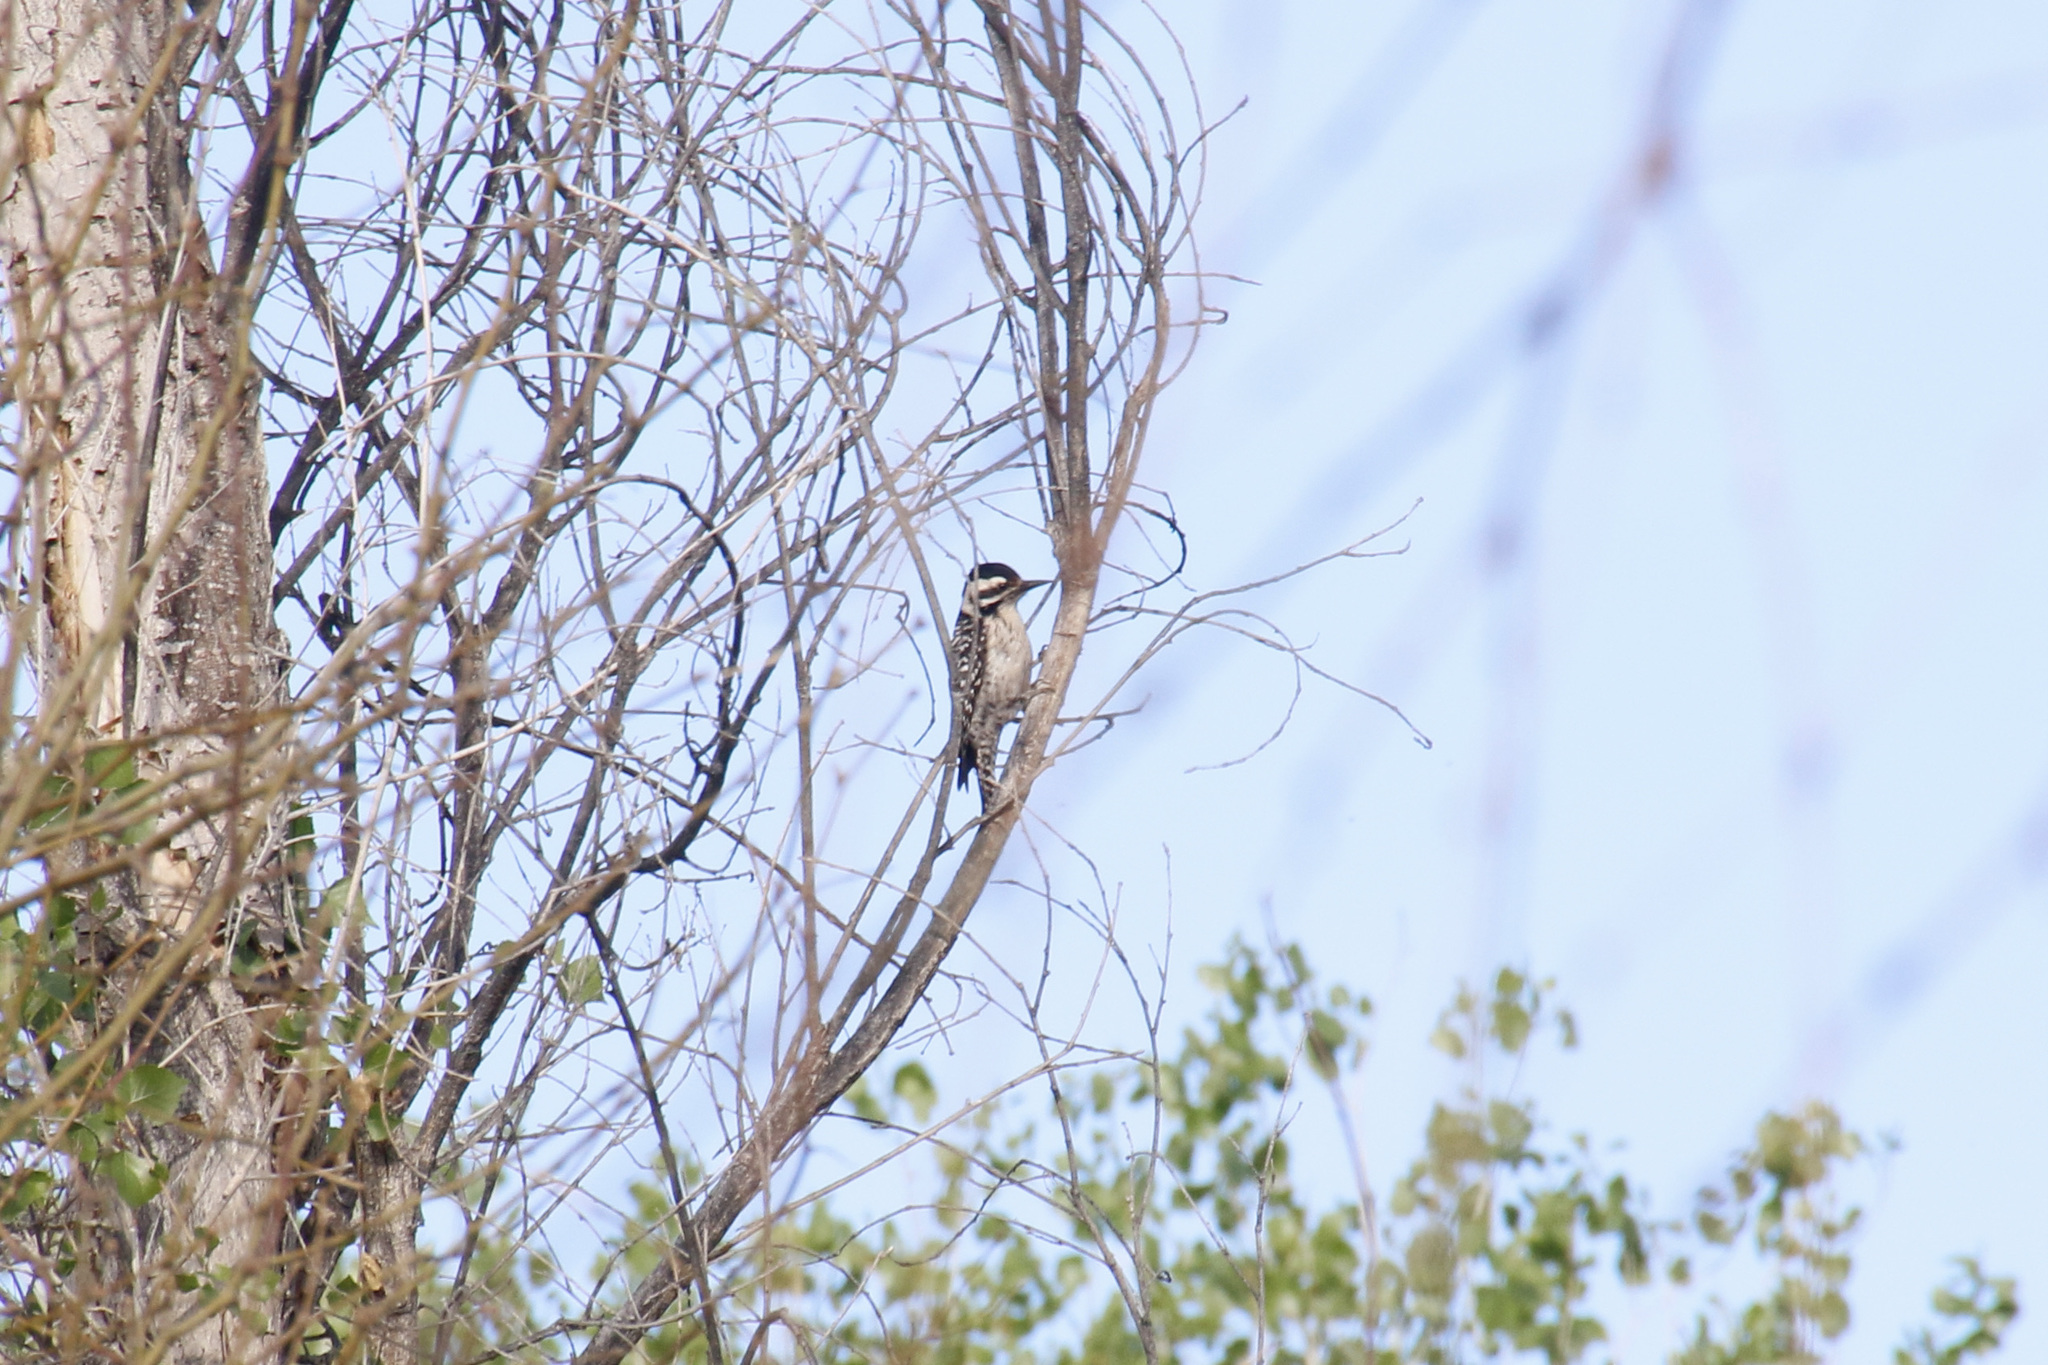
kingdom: Animalia
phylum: Chordata
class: Aves
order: Piciformes
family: Picidae
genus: Dryobates
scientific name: Dryobates scalaris
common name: Ladder-backed woodpecker
